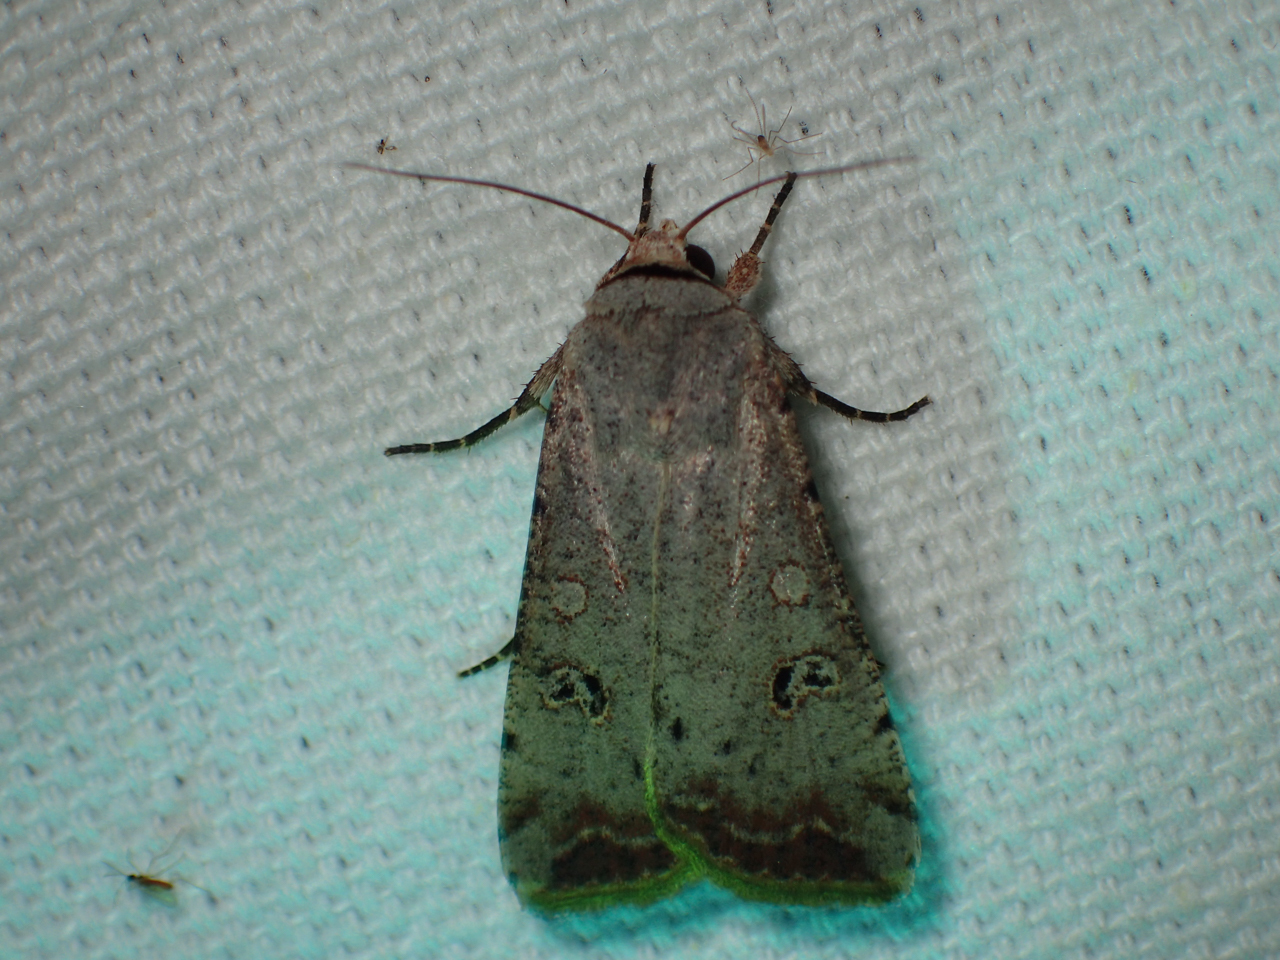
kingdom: Animalia
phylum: Arthropoda
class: Insecta
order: Lepidoptera
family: Noctuidae
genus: Anicla
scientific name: Anicla infecta
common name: Green cutworm
